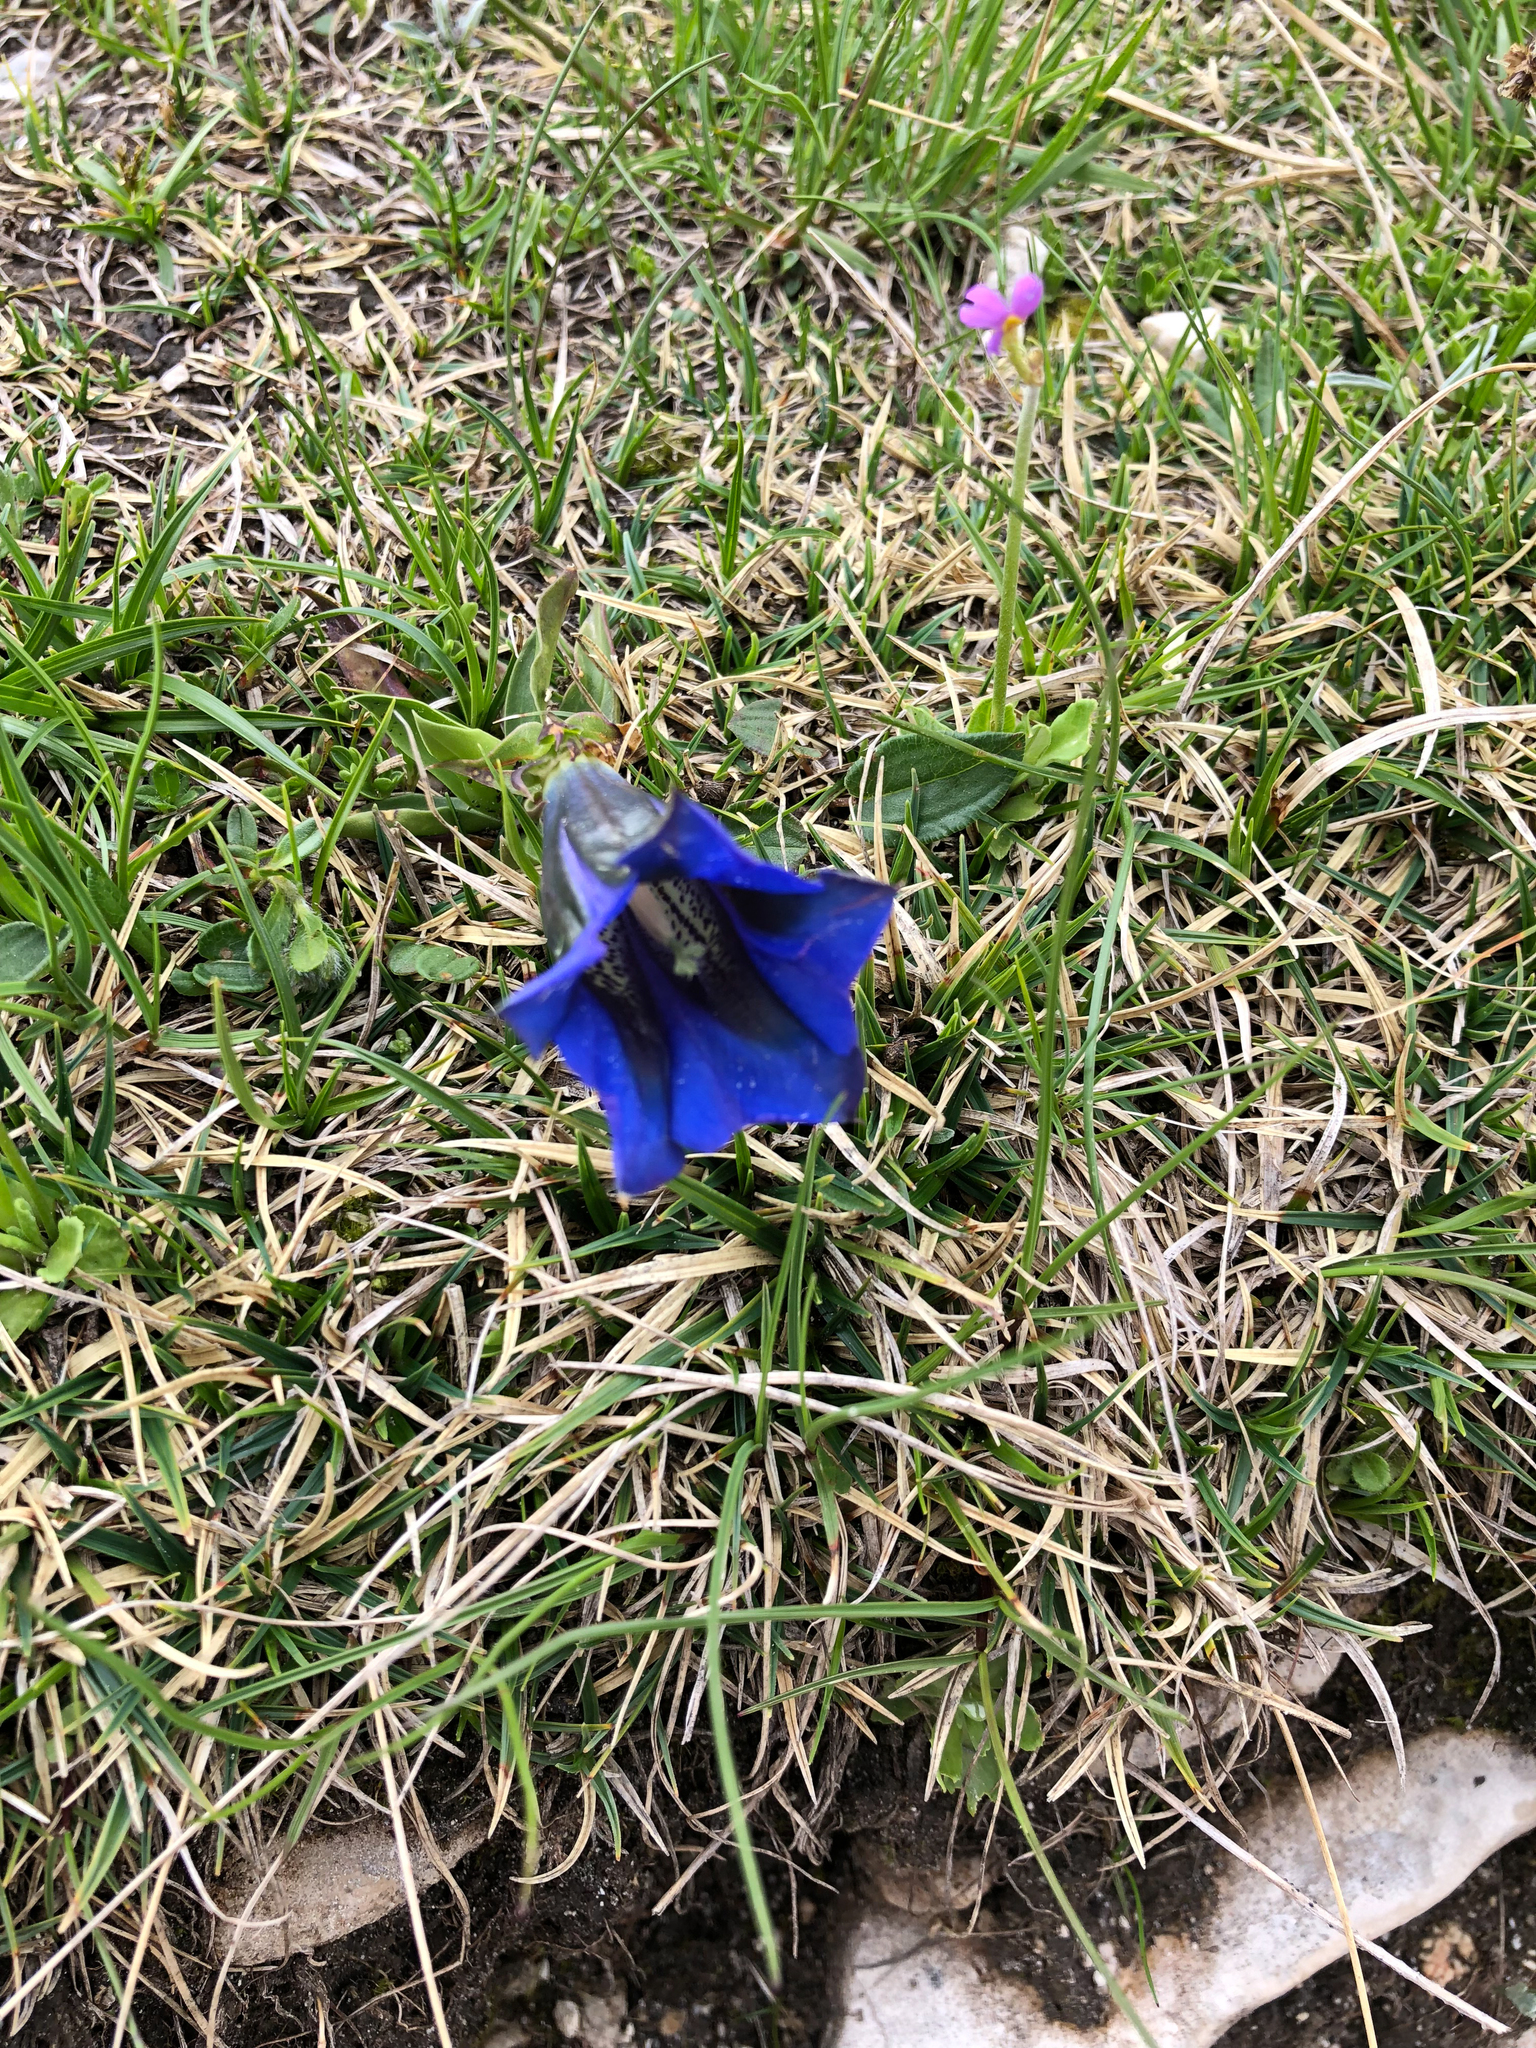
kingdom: Plantae
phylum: Tracheophyta
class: Magnoliopsida
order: Gentianales
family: Gentianaceae
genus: Gentiana
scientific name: Gentiana clusii
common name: Trumpet gentian
